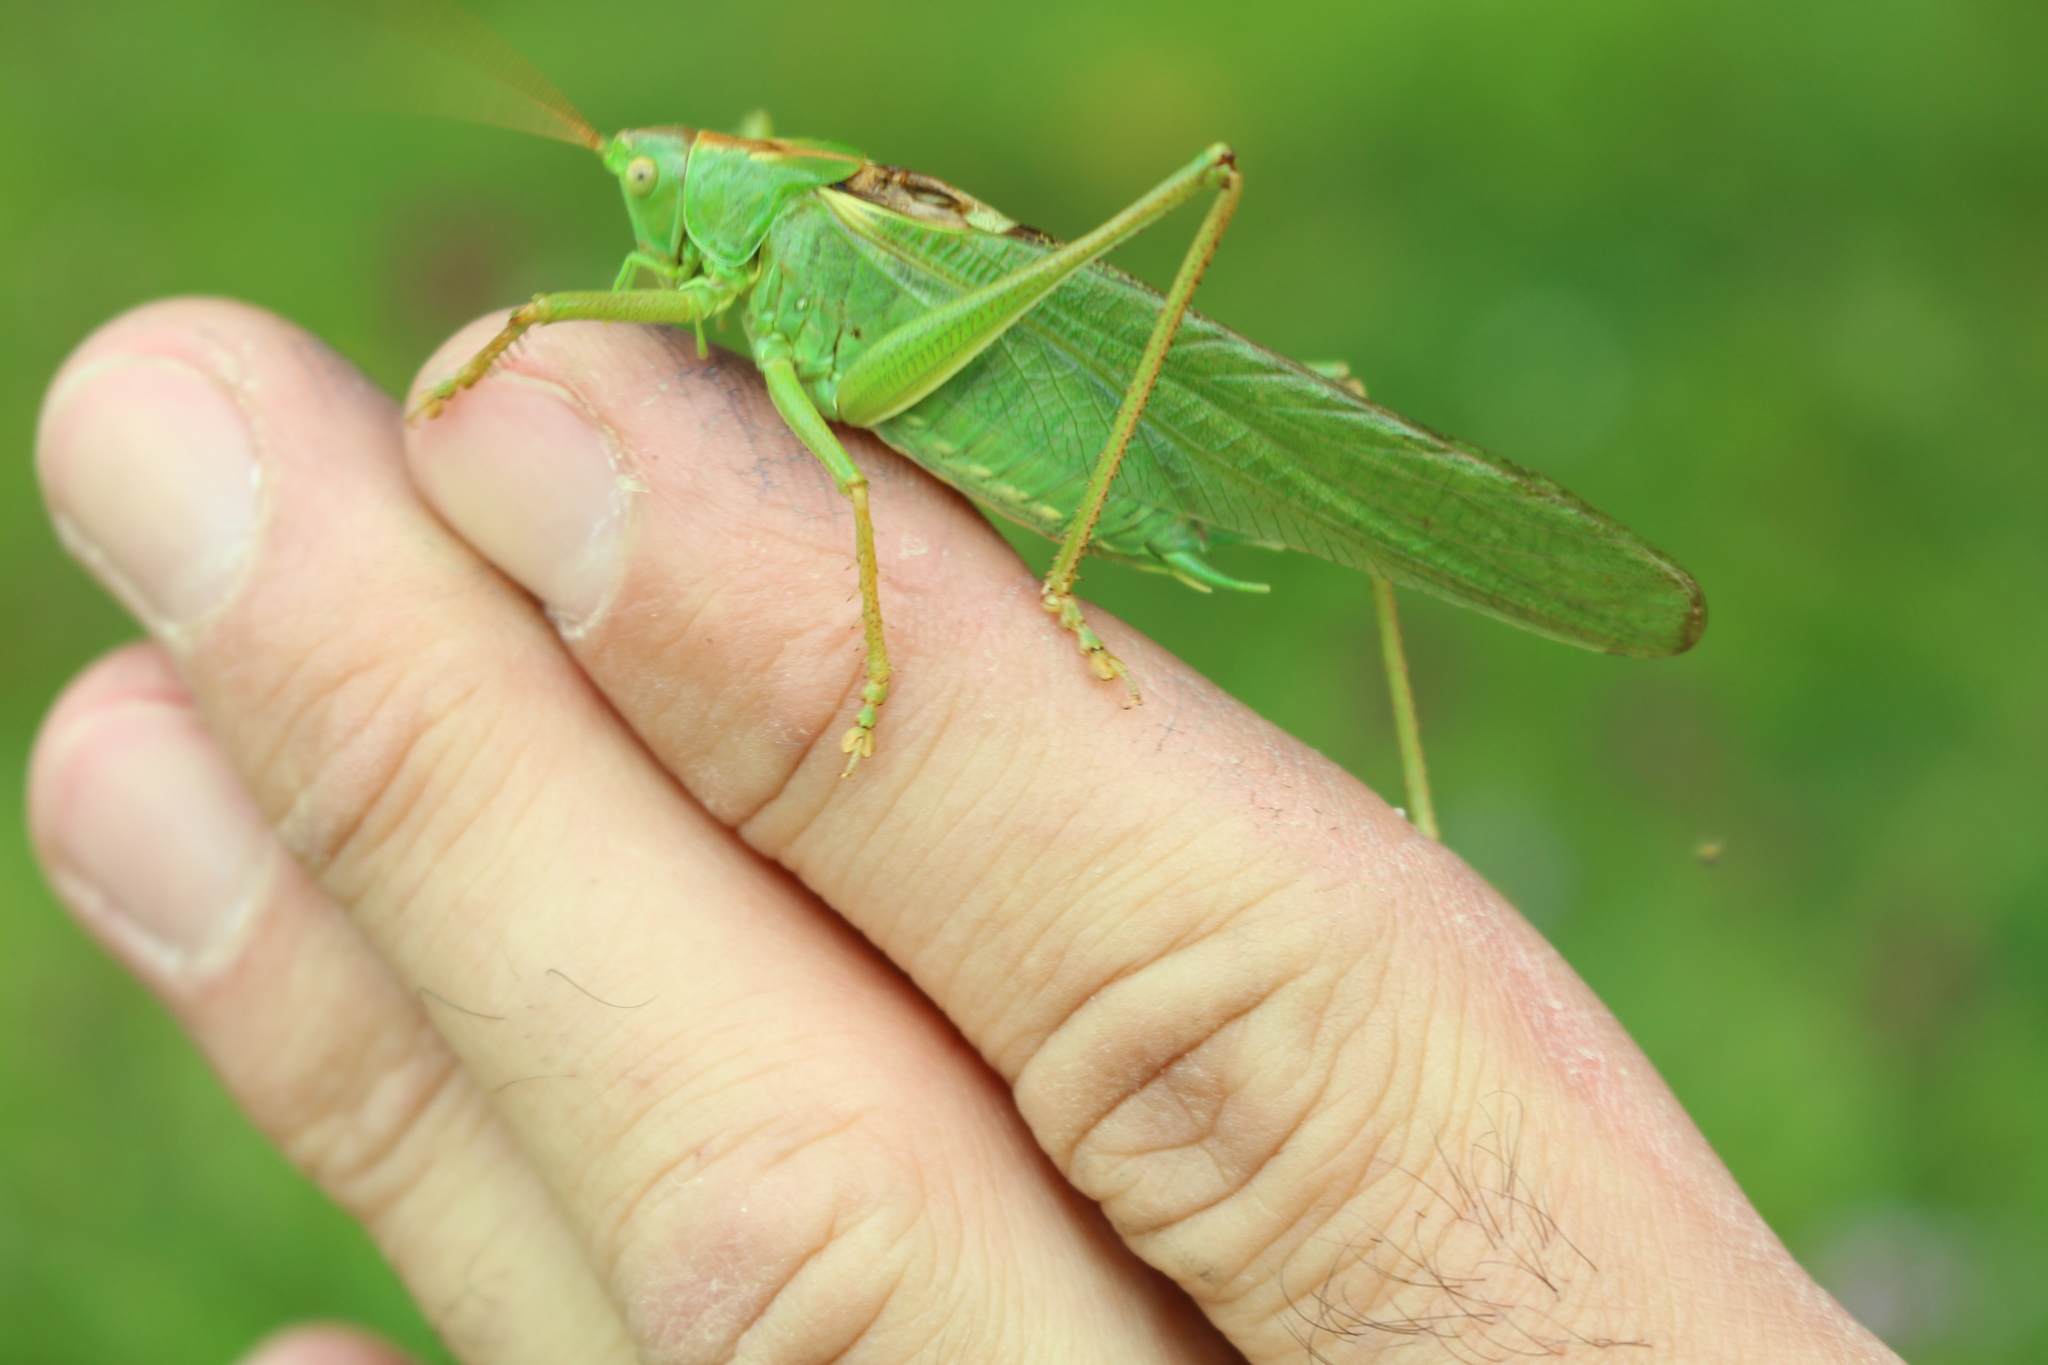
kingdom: Animalia
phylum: Arthropoda
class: Insecta
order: Orthoptera
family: Tettigoniidae
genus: Tettigonia
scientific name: Tettigonia viridissima
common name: Great green bush-cricket
